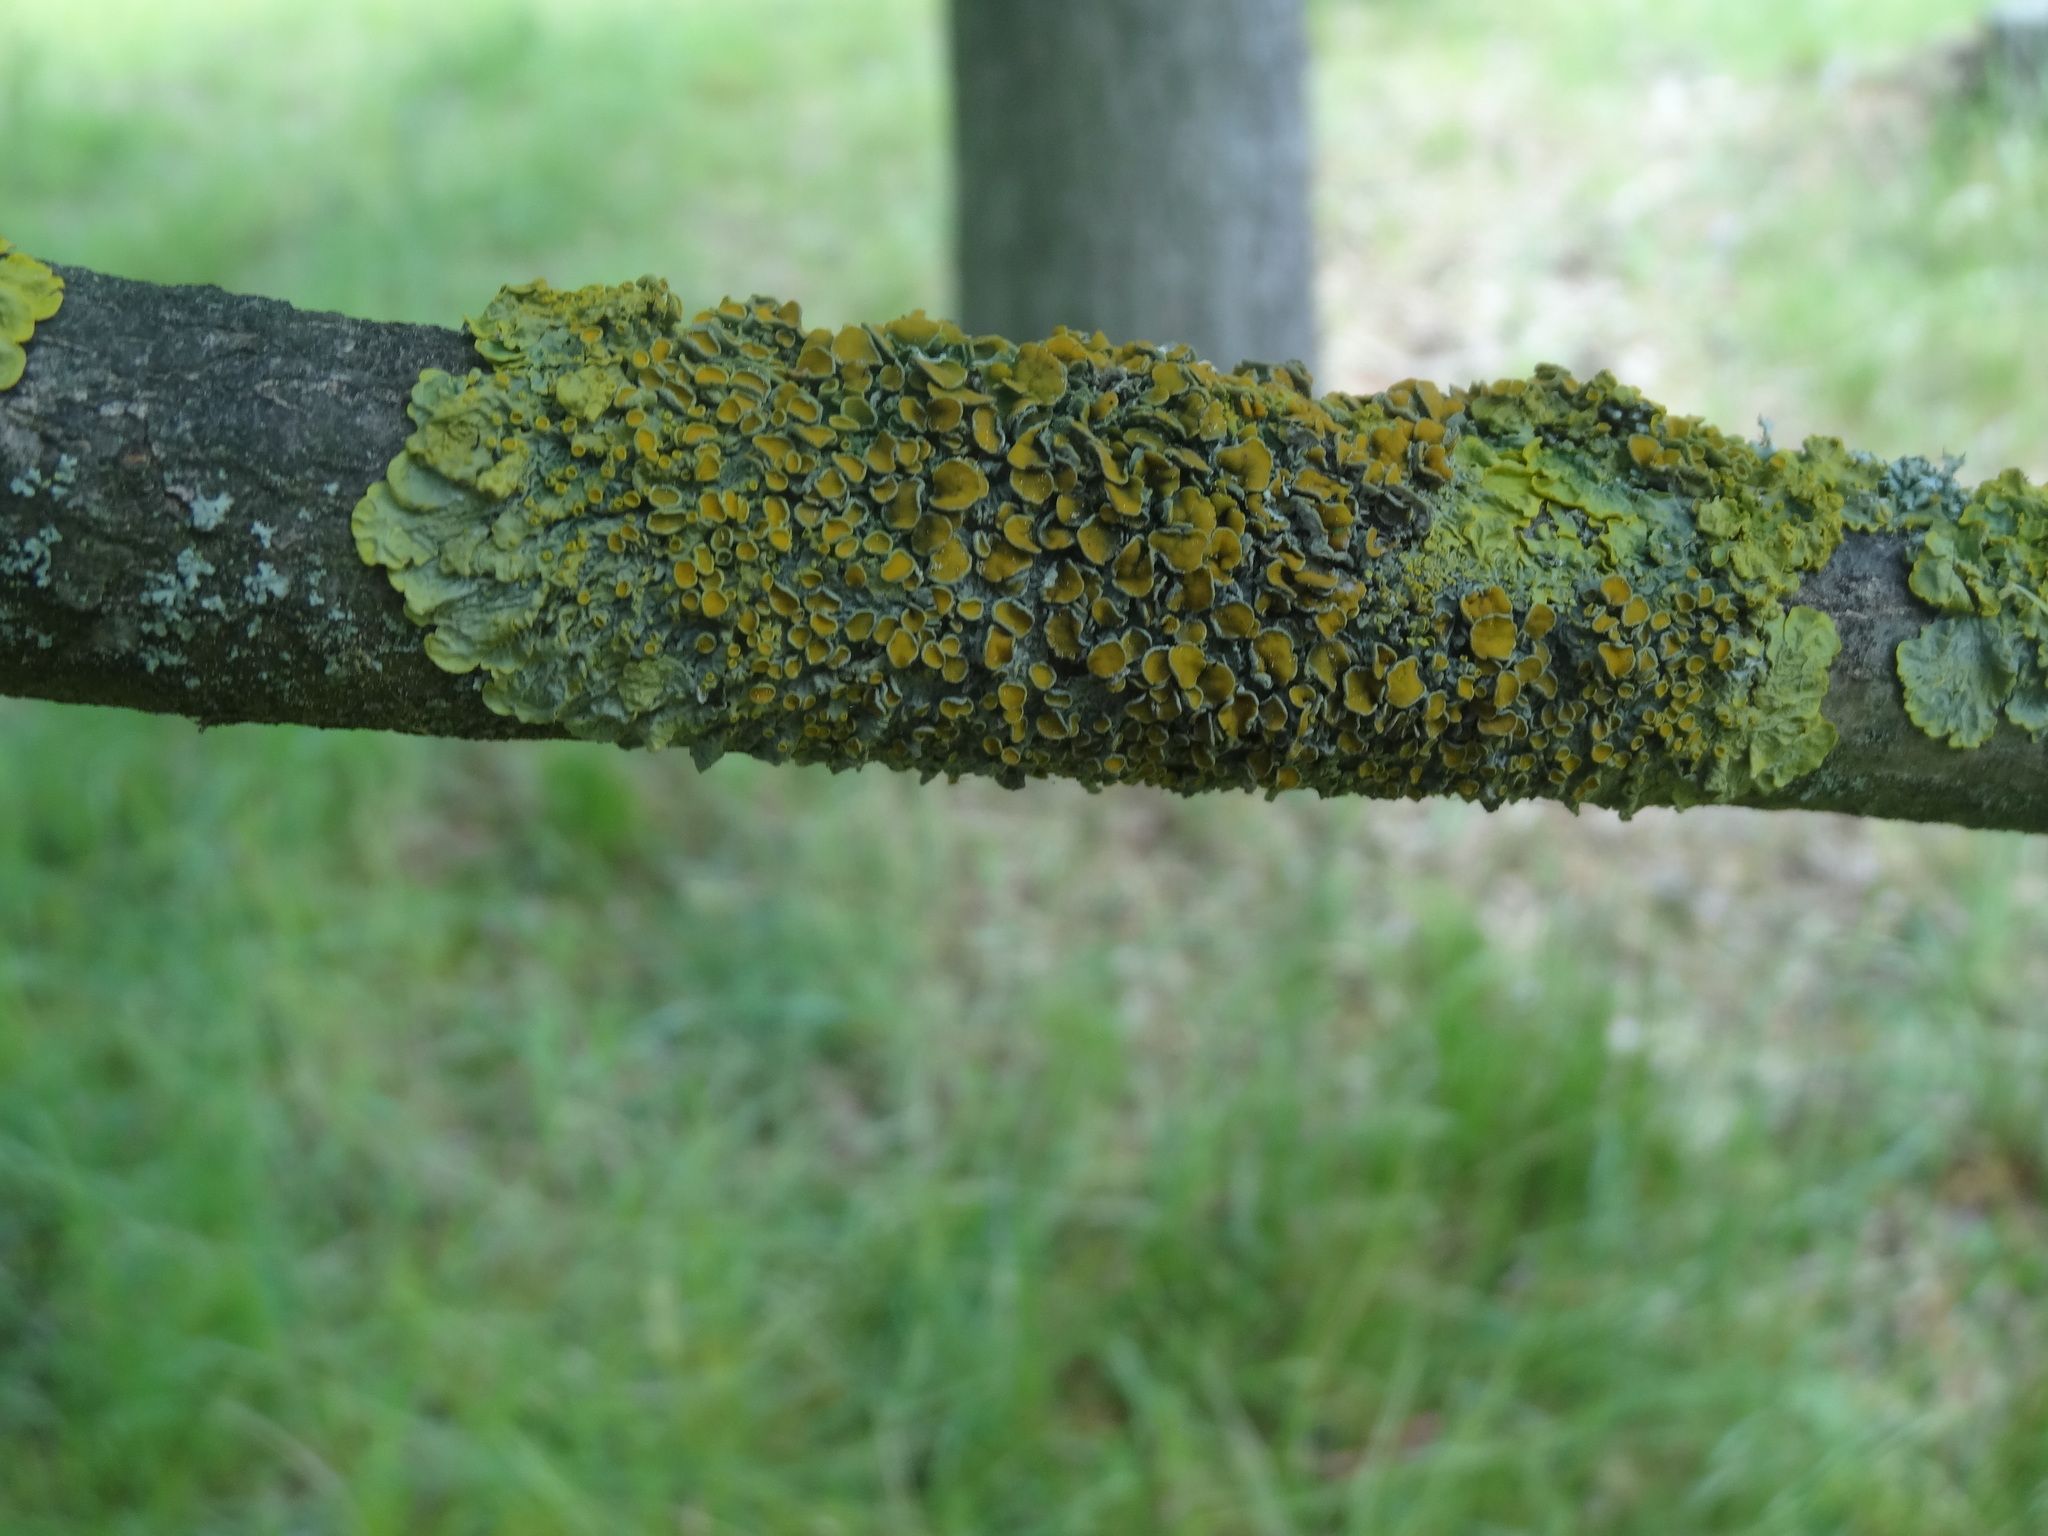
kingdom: Fungi
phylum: Ascomycota
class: Lecanoromycetes
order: Teloschistales
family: Teloschistaceae
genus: Xanthoria
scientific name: Xanthoria parietina
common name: Common orange lichen
